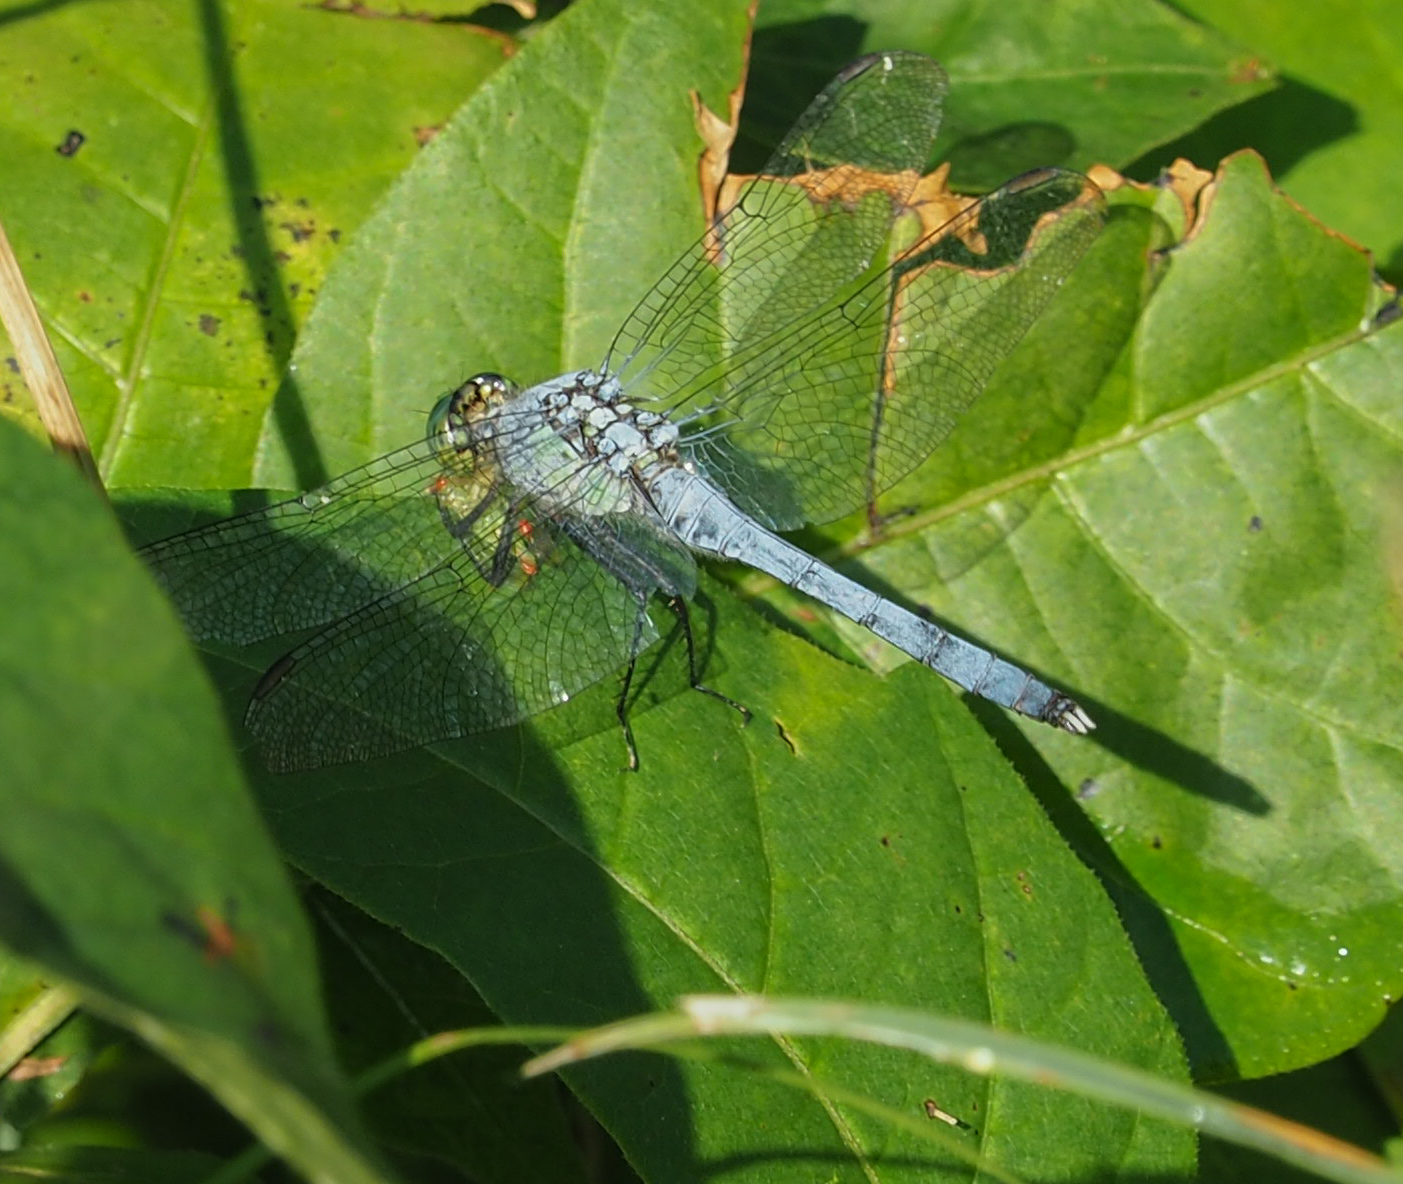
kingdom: Animalia
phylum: Arthropoda
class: Insecta
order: Odonata
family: Libellulidae
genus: Erythemis
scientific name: Erythemis simplicicollis
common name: Eastern pondhawk
